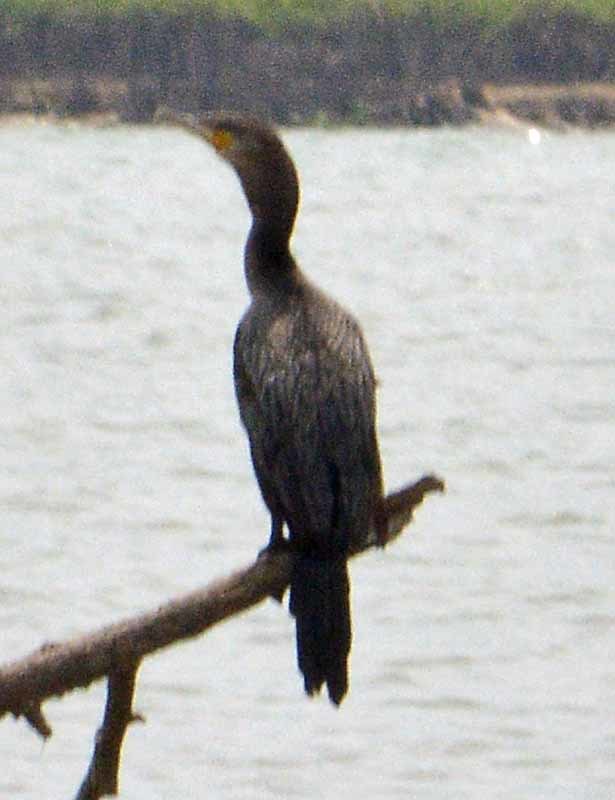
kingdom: Animalia
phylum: Chordata
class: Aves
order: Suliformes
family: Phalacrocoracidae
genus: Phalacrocorax
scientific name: Phalacrocorax brasilianus
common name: Neotropic cormorant
